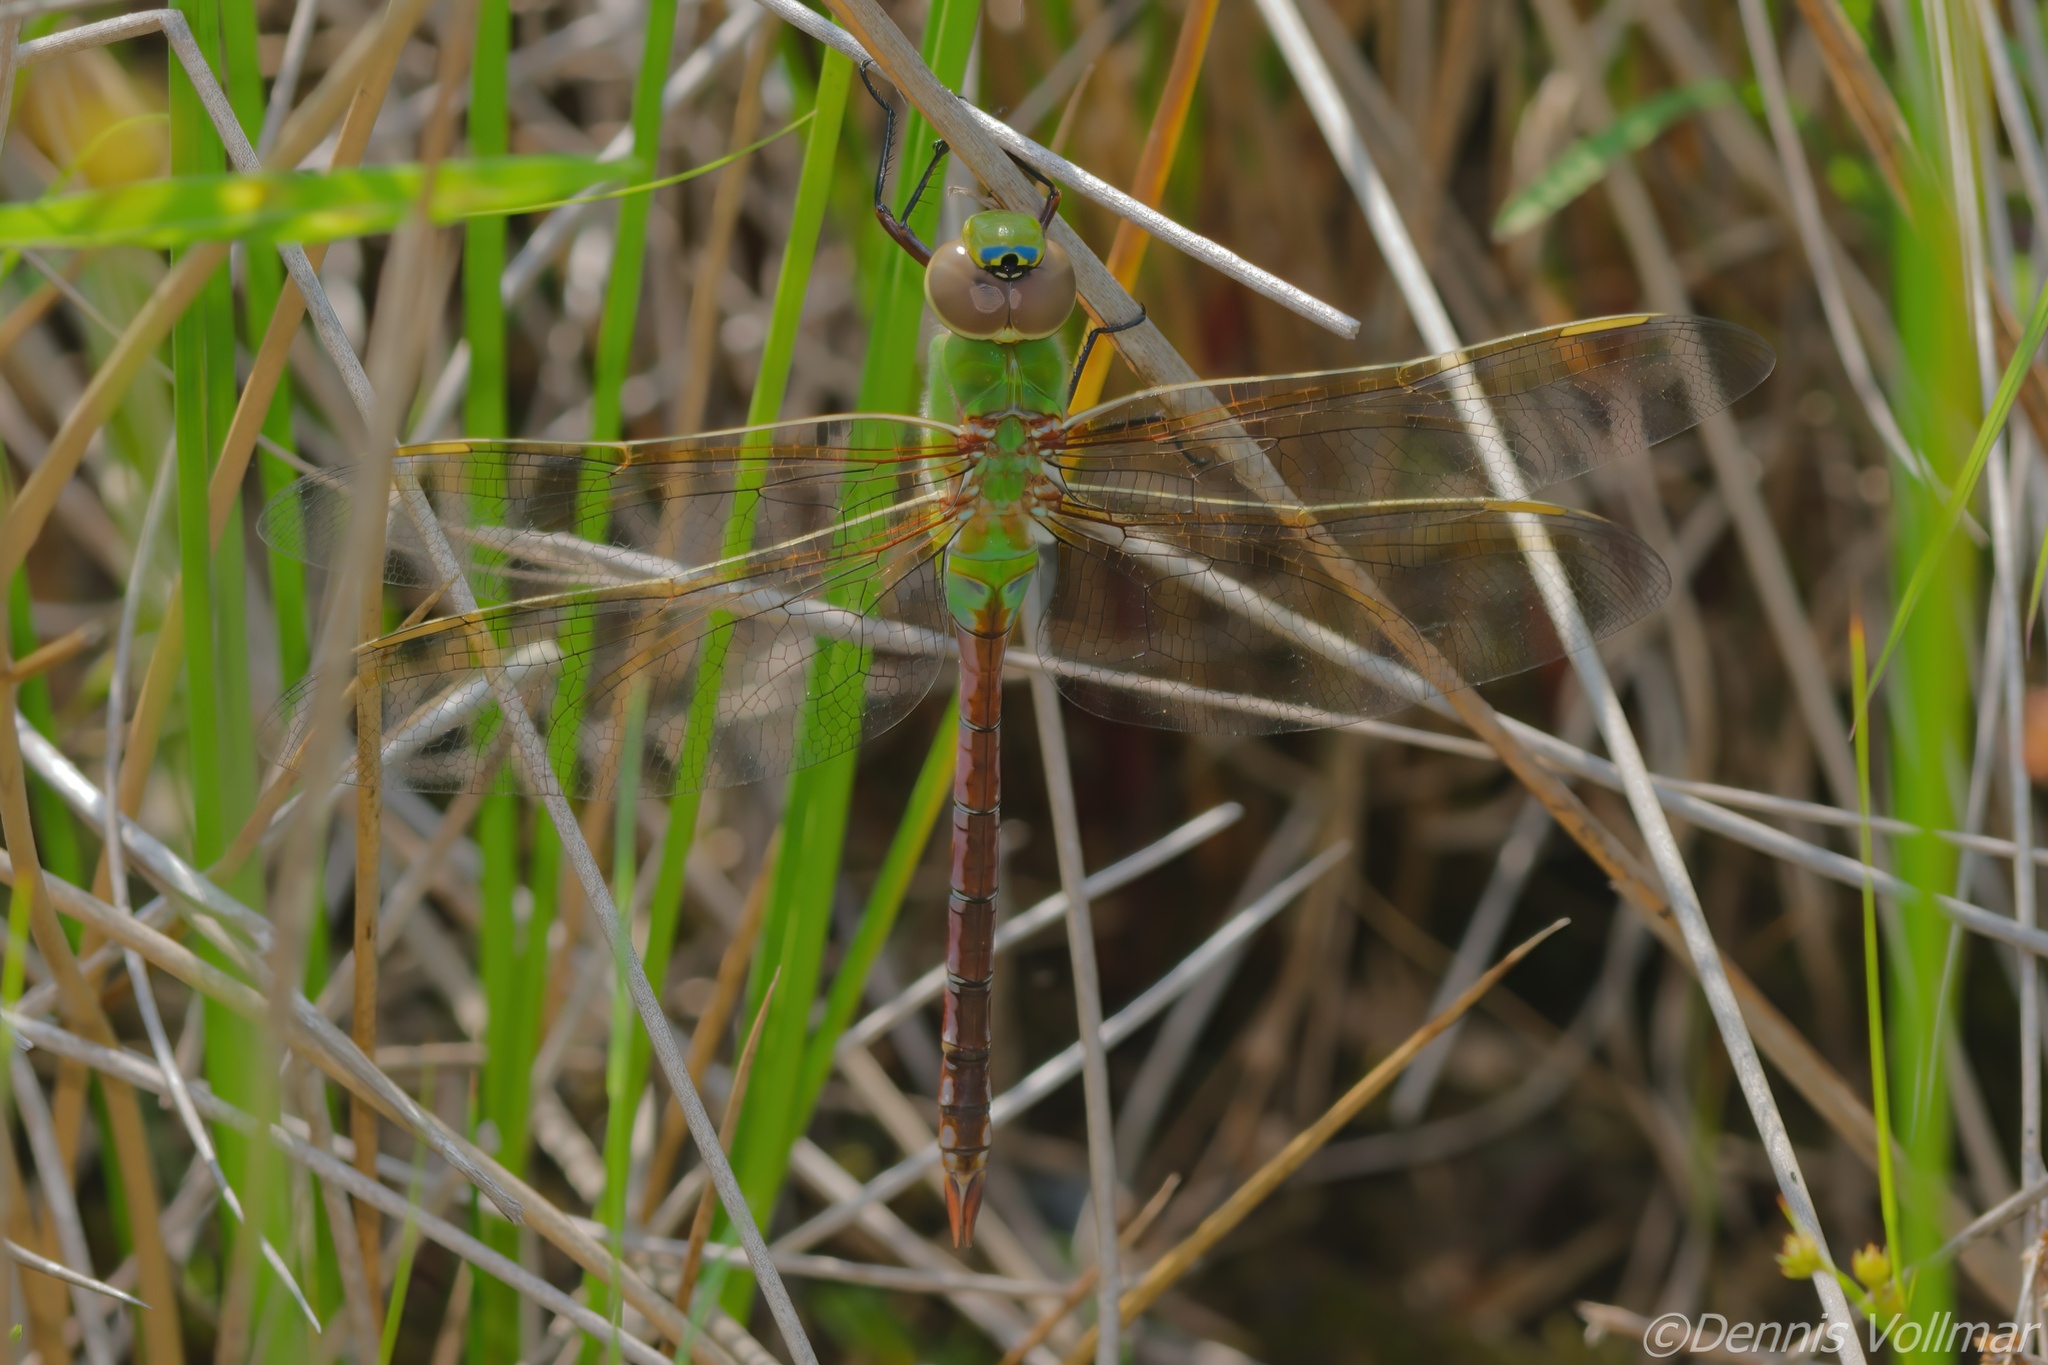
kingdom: Animalia
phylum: Arthropoda
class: Insecta
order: Odonata
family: Aeshnidae
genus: Anax
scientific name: Anax junius
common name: Common green darner
